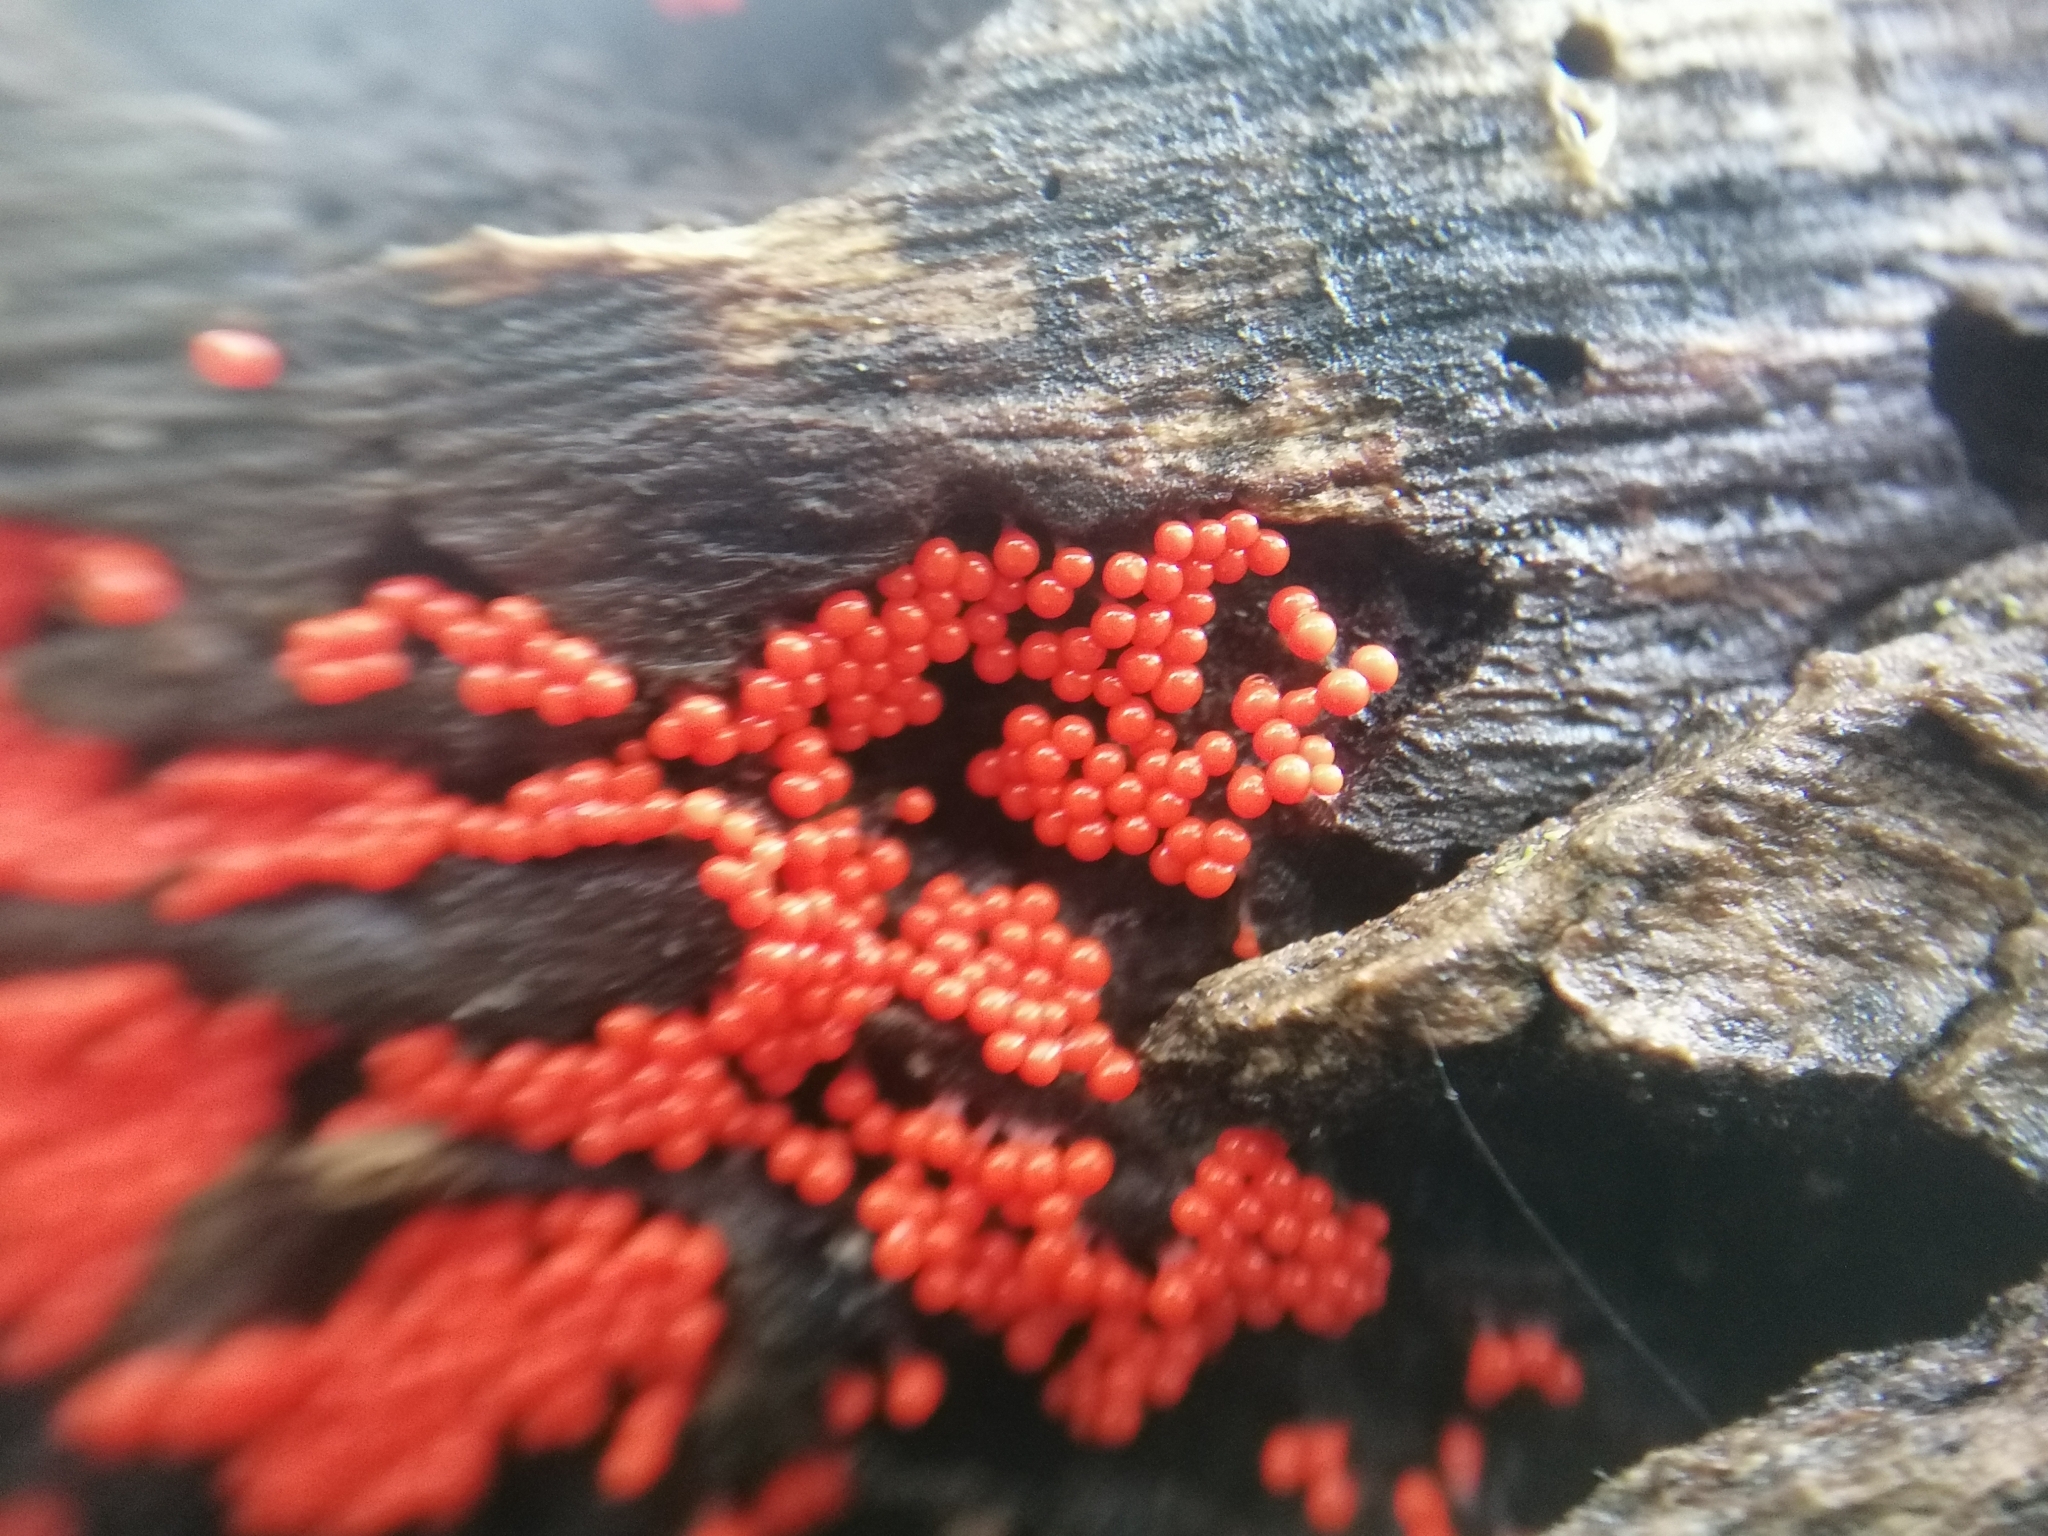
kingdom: Protozoa
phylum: Mycetozoa
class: Myxomycetes
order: Trichiales
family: Arcyriaceae
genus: Hemitrichia
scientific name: Hemitrichia decipiens
